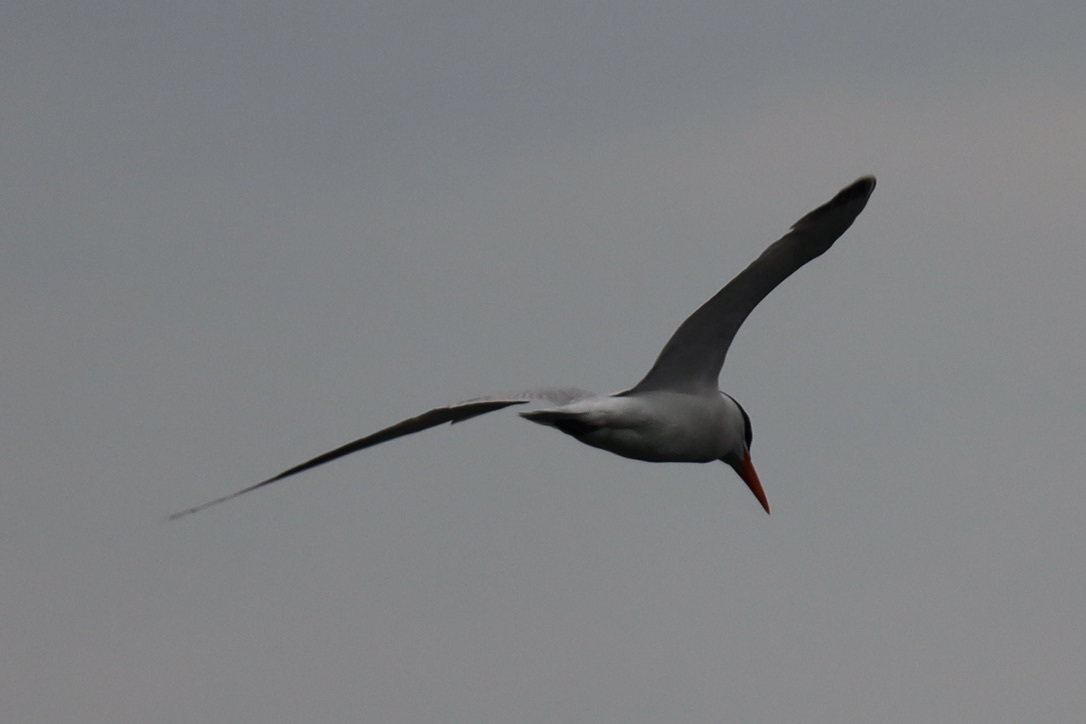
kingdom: Animalia
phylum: Chordata
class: Aves
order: Charadriiformes
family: Laridae
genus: Hydroprogne
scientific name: Hydroprogne caspia
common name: Caspian tern
